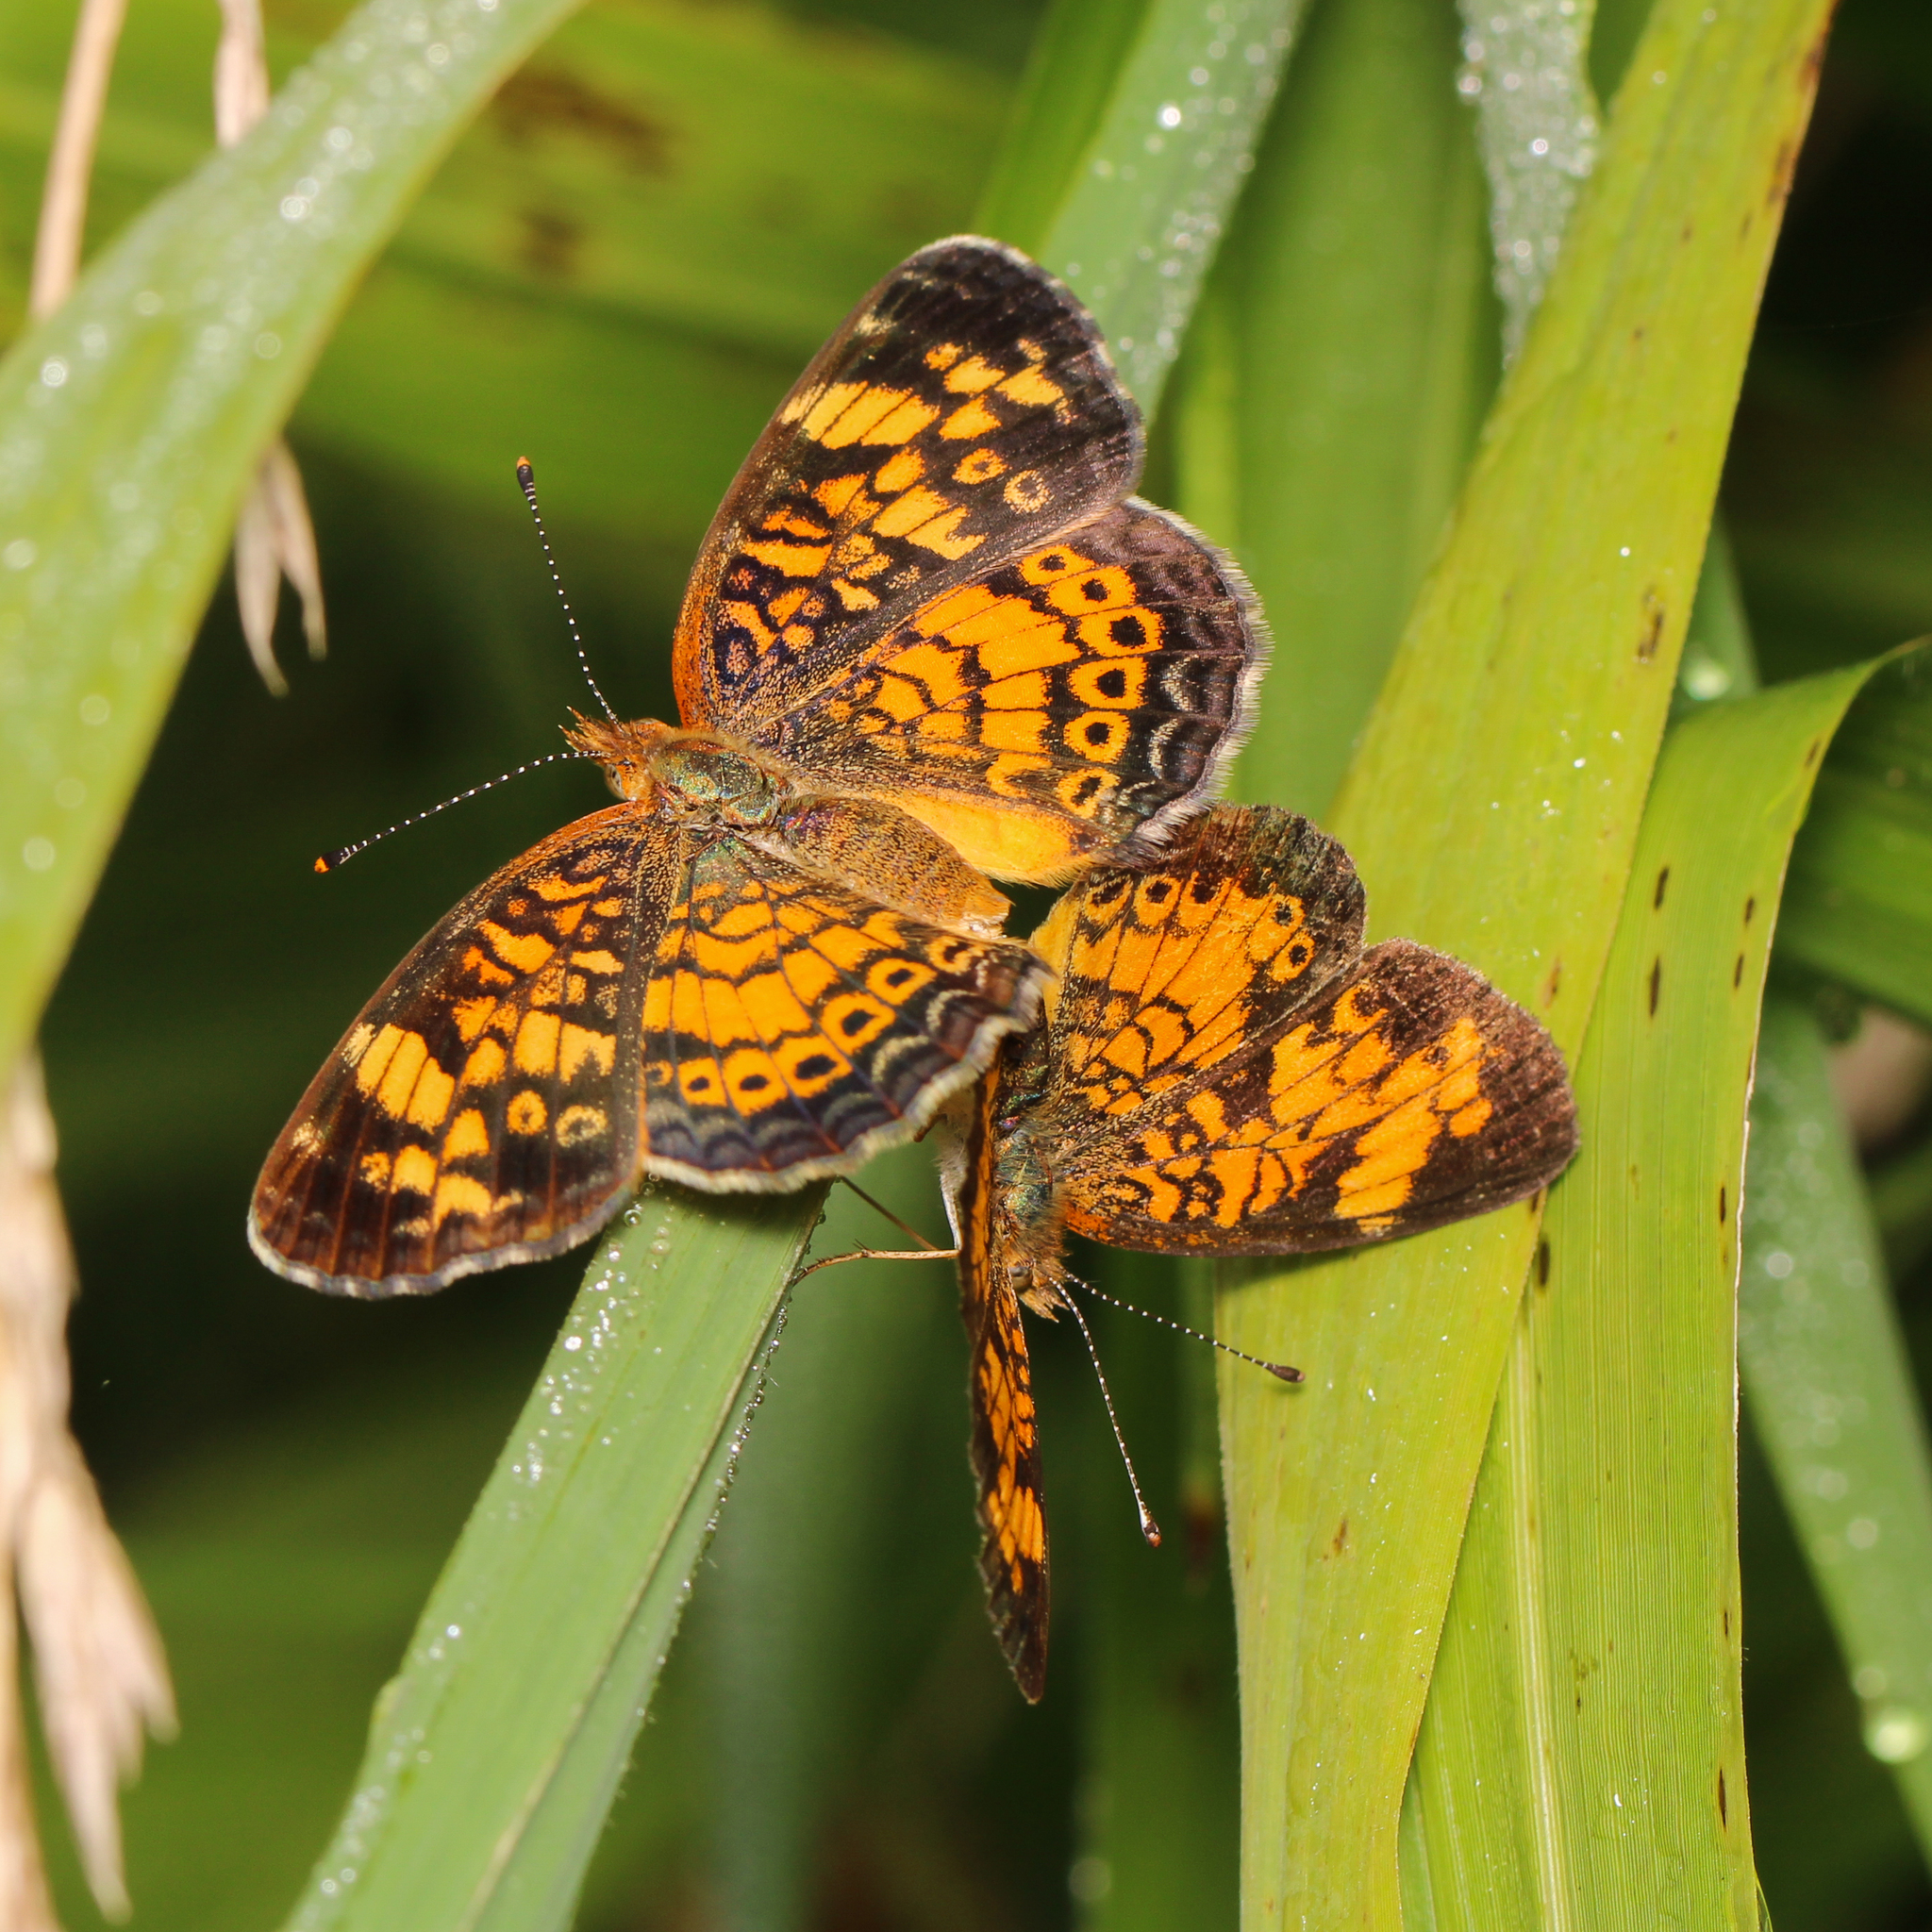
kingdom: Animalia
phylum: Arthropoda
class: Insecta
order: Lepidoptera
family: Nymphalidae
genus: Phyciodes
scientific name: Phyciodes tharos
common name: Pearl crescent
